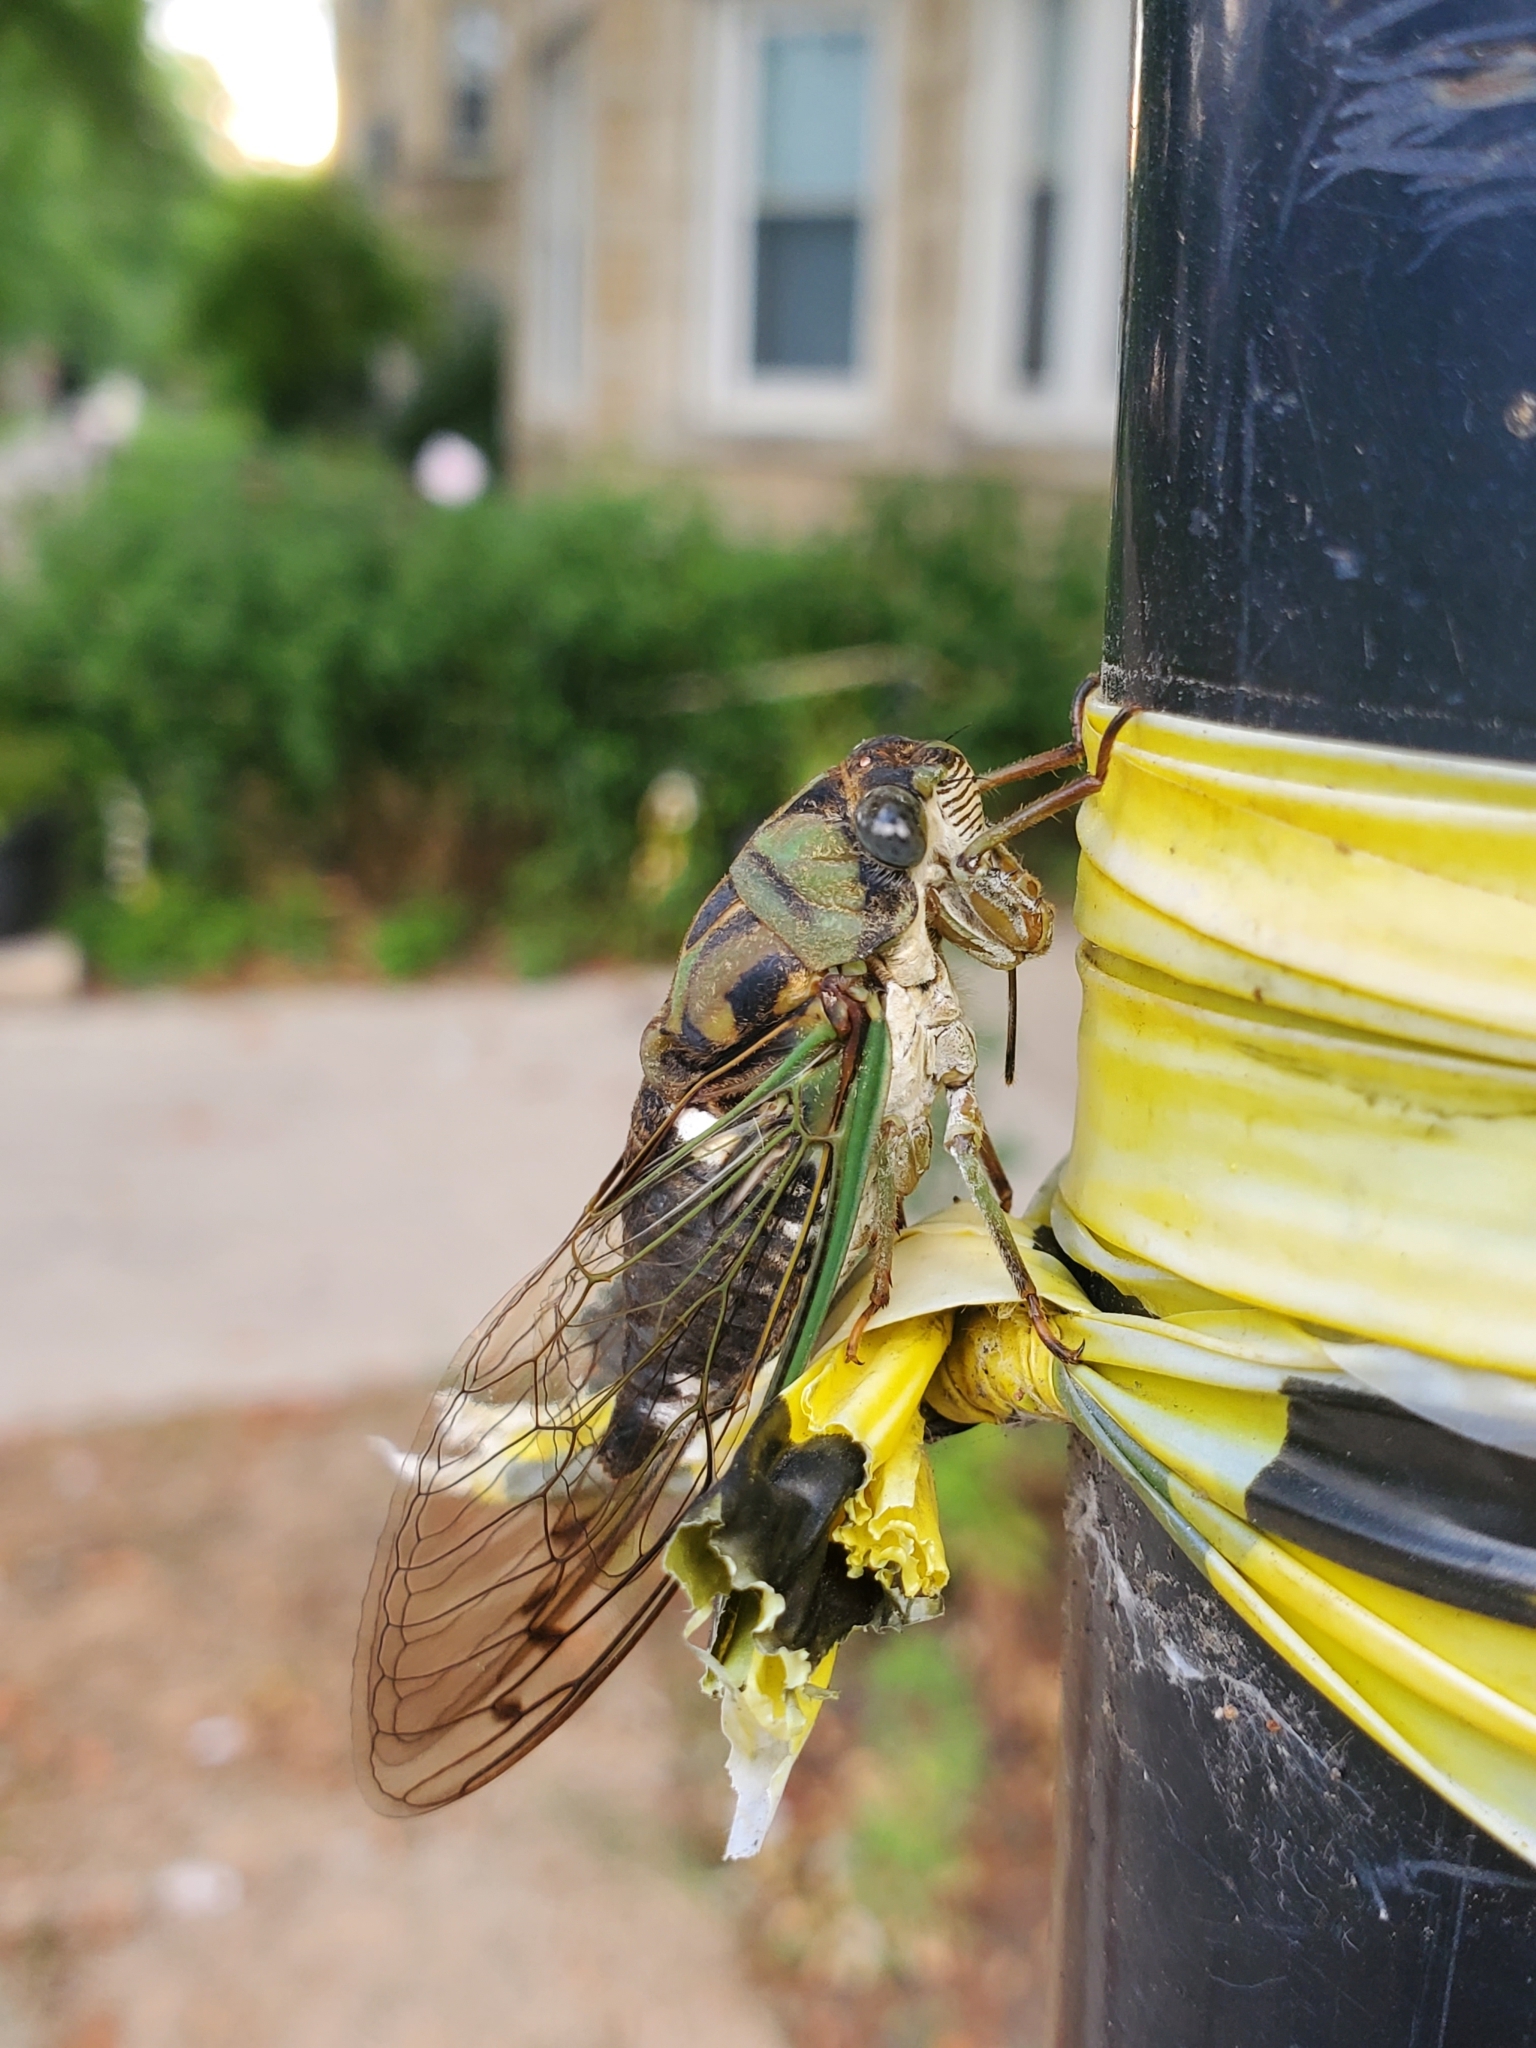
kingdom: Animalia
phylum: Arthropoda
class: Insecta
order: Hemiptera
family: Cicadidae
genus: Neotibicen
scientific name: Neotibicen pruinosus
